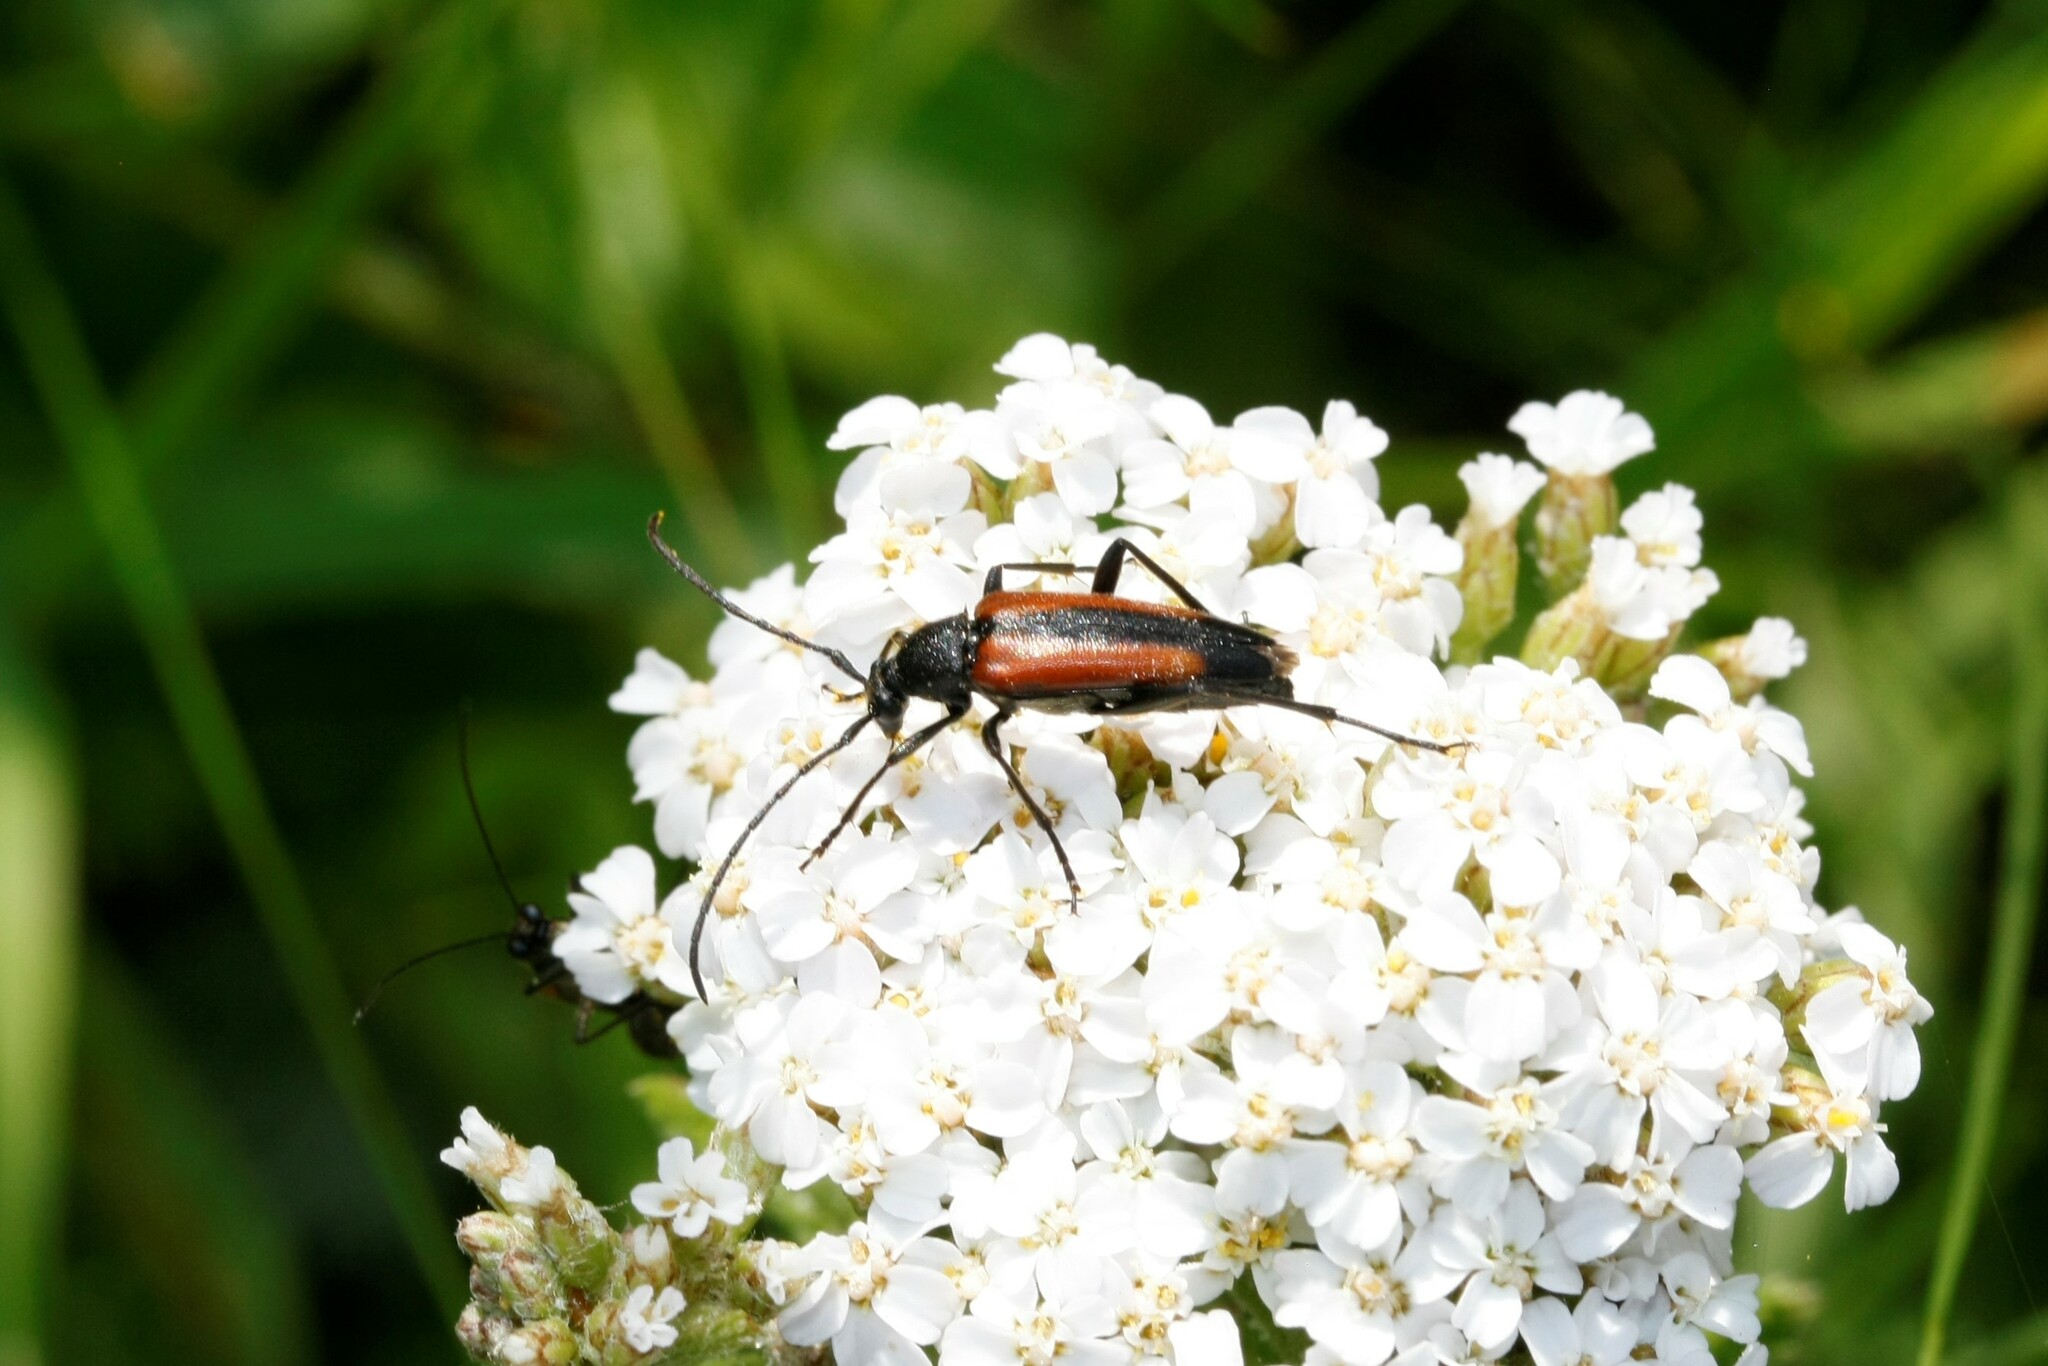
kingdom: Animalia
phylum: Arthropoda
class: Insecta
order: Coleoptera
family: Cerambycidae
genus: Stenurella
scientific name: Stenurella melanura
